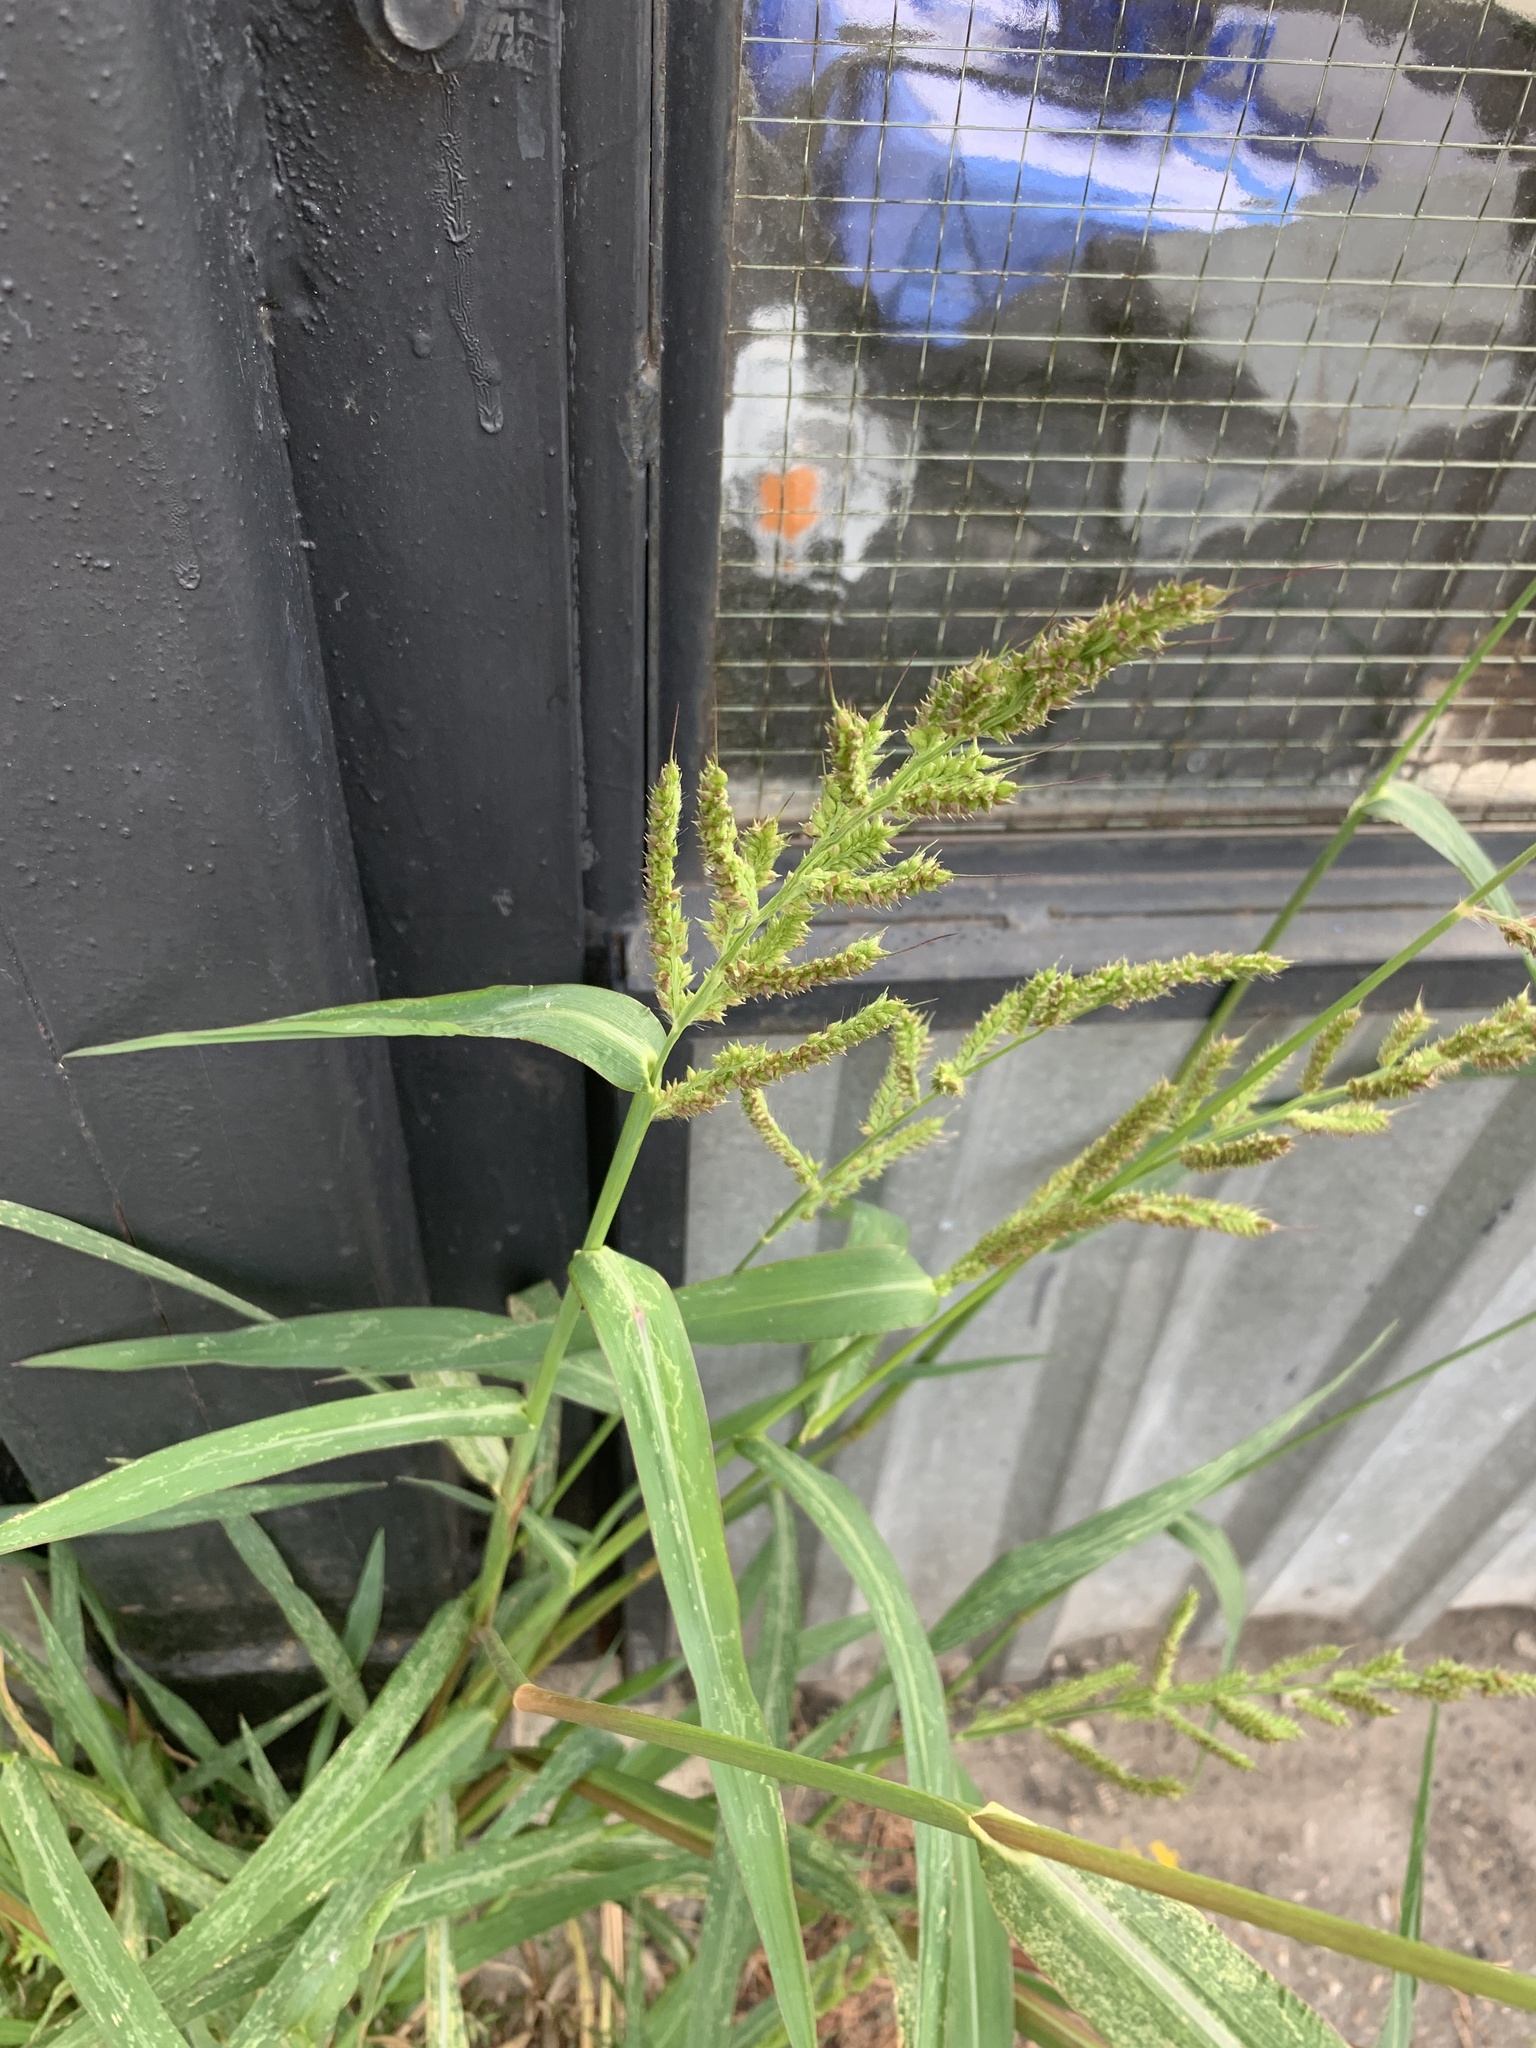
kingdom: Plantae
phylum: Tracheophyta
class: Liliopsida
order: Poales
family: Poaceae
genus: Echinochloa
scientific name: Echinochloa crus-galli
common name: Cockspur
